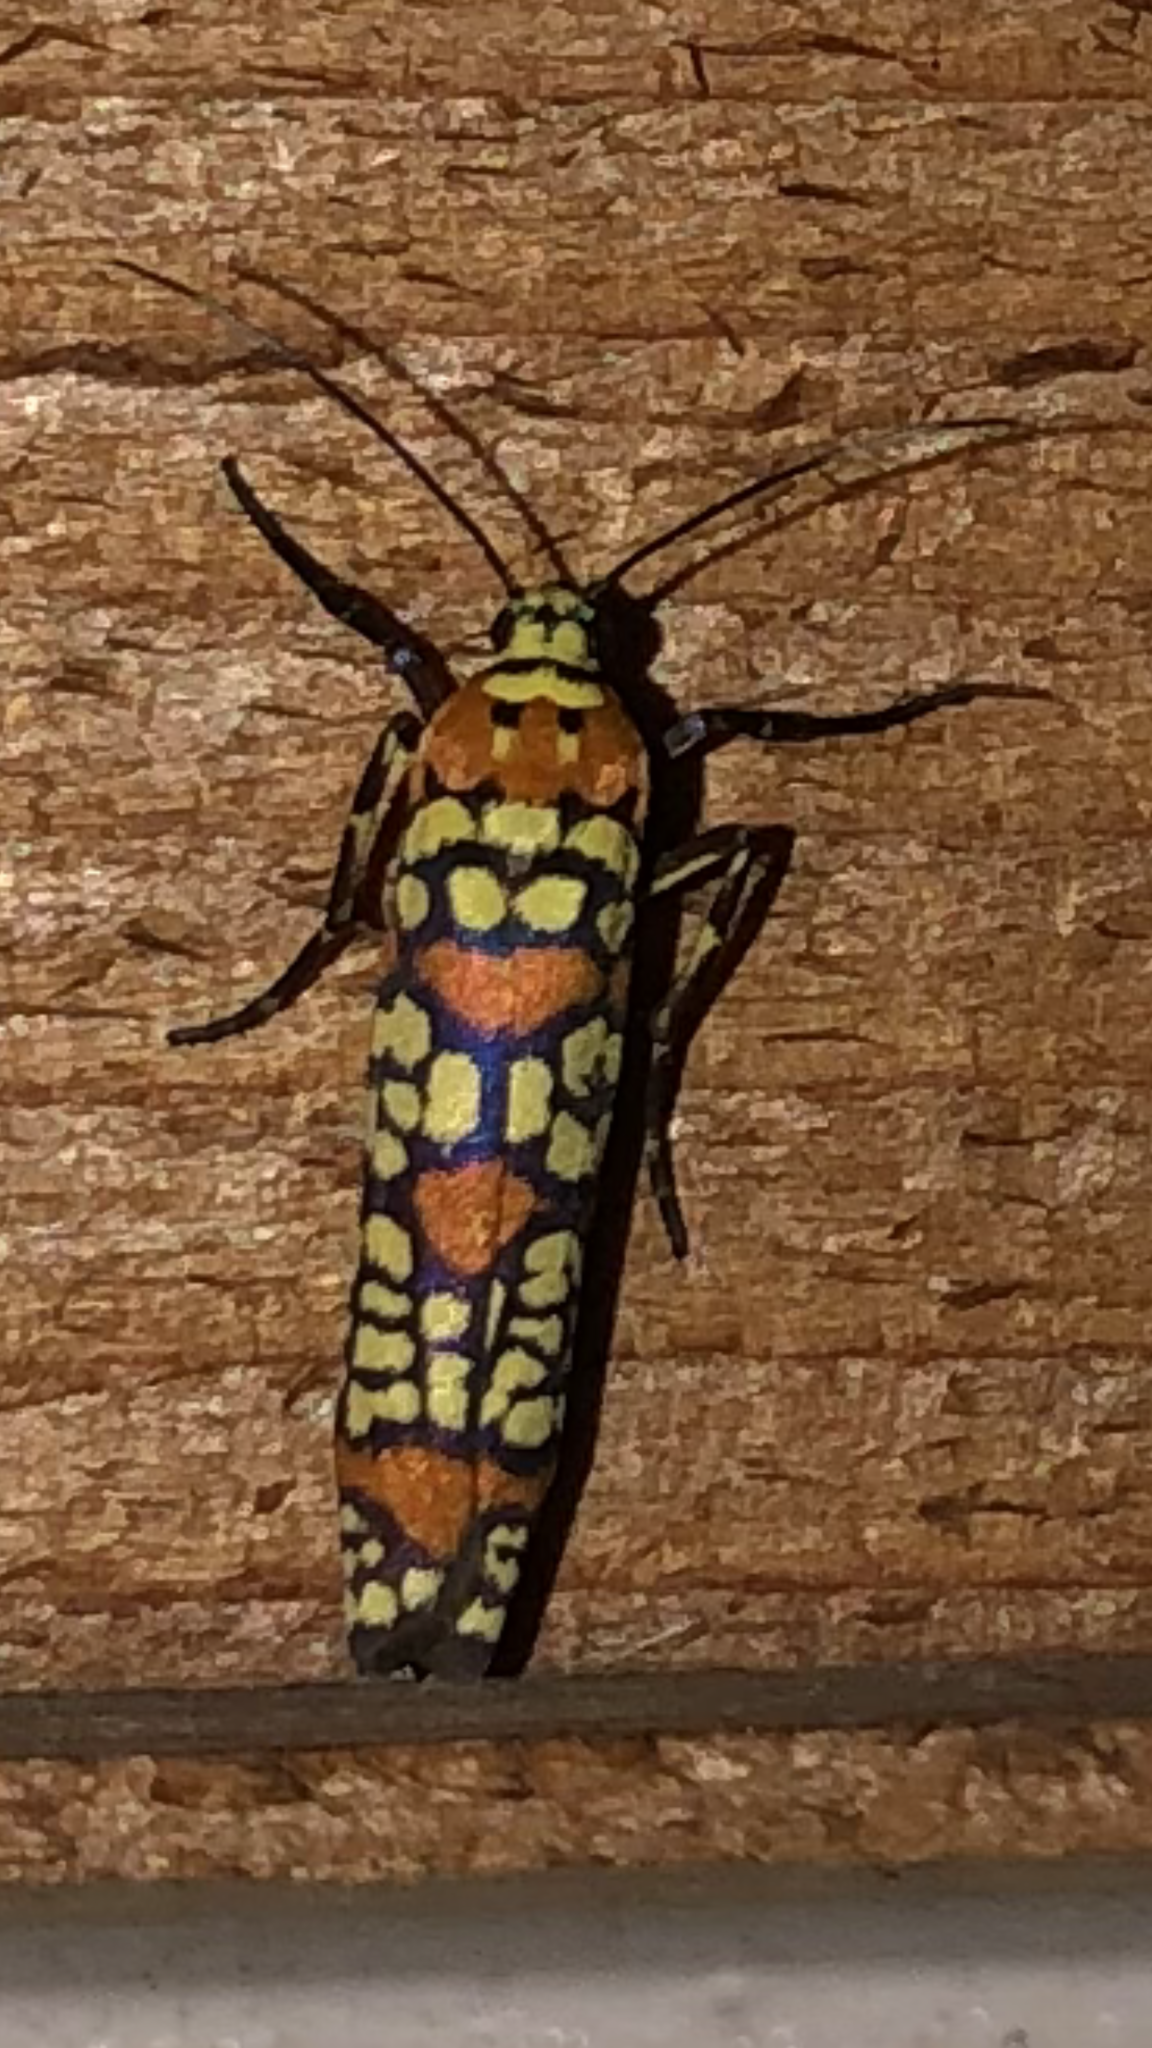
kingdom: Animalia
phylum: Arthropoda
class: Insecta
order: Lepidoptera
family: Attevidae
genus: Atteva
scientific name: Atteva punctella
